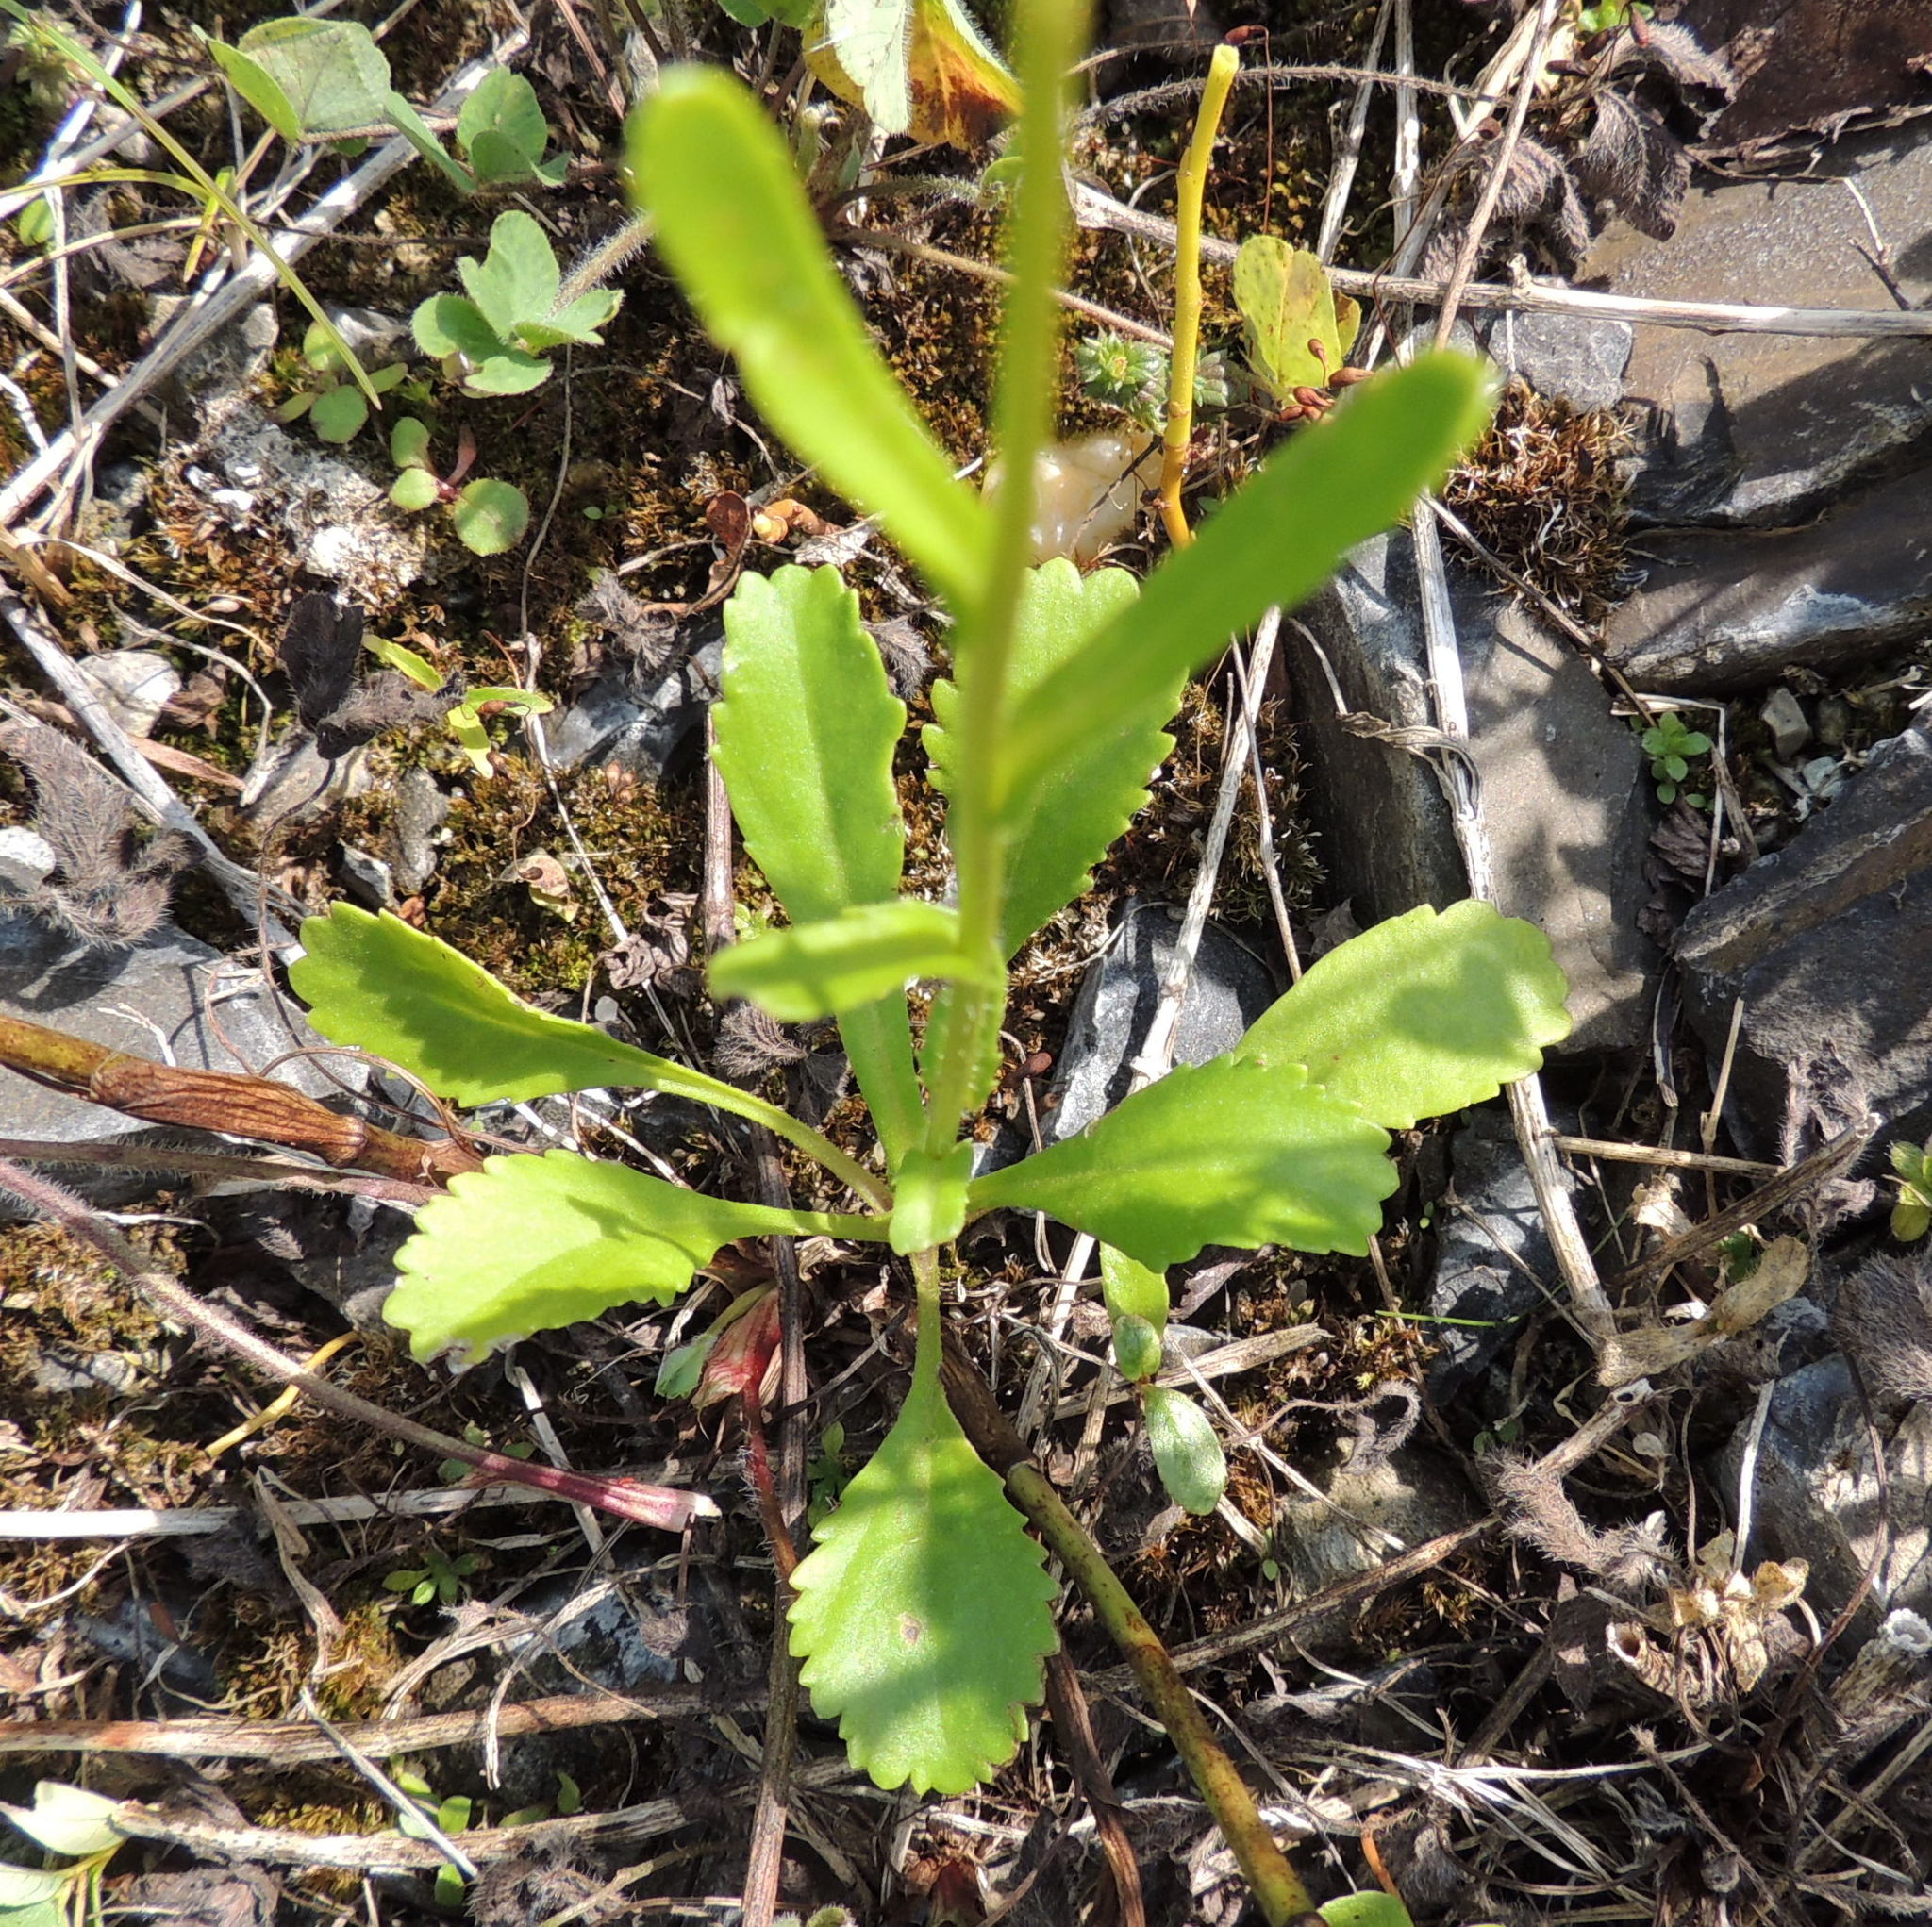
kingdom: Plantae
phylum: Tracheophyta
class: Magnoliopsida
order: Asterales
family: Asteraceae
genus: Leucanthemum
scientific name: Leucanthemum ircutianum
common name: Daisy
